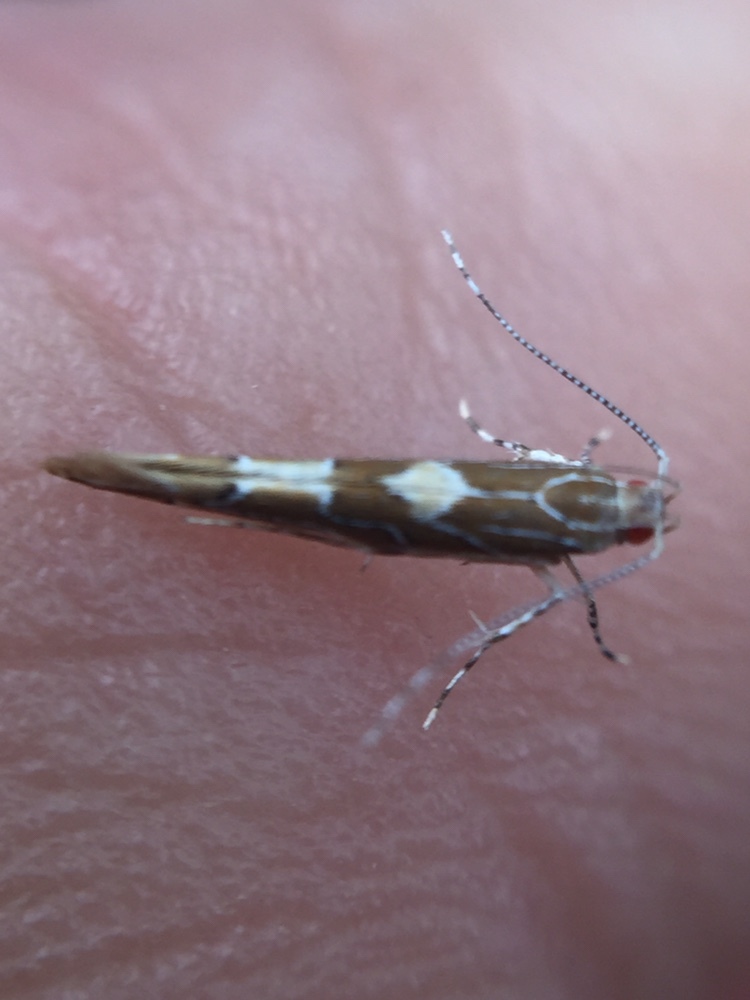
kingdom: Animalia
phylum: Arthropoda
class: Insecta
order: Lepidoptera
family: Cosmopterigidae
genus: Pyroderces
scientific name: Pyroderces apparitella
